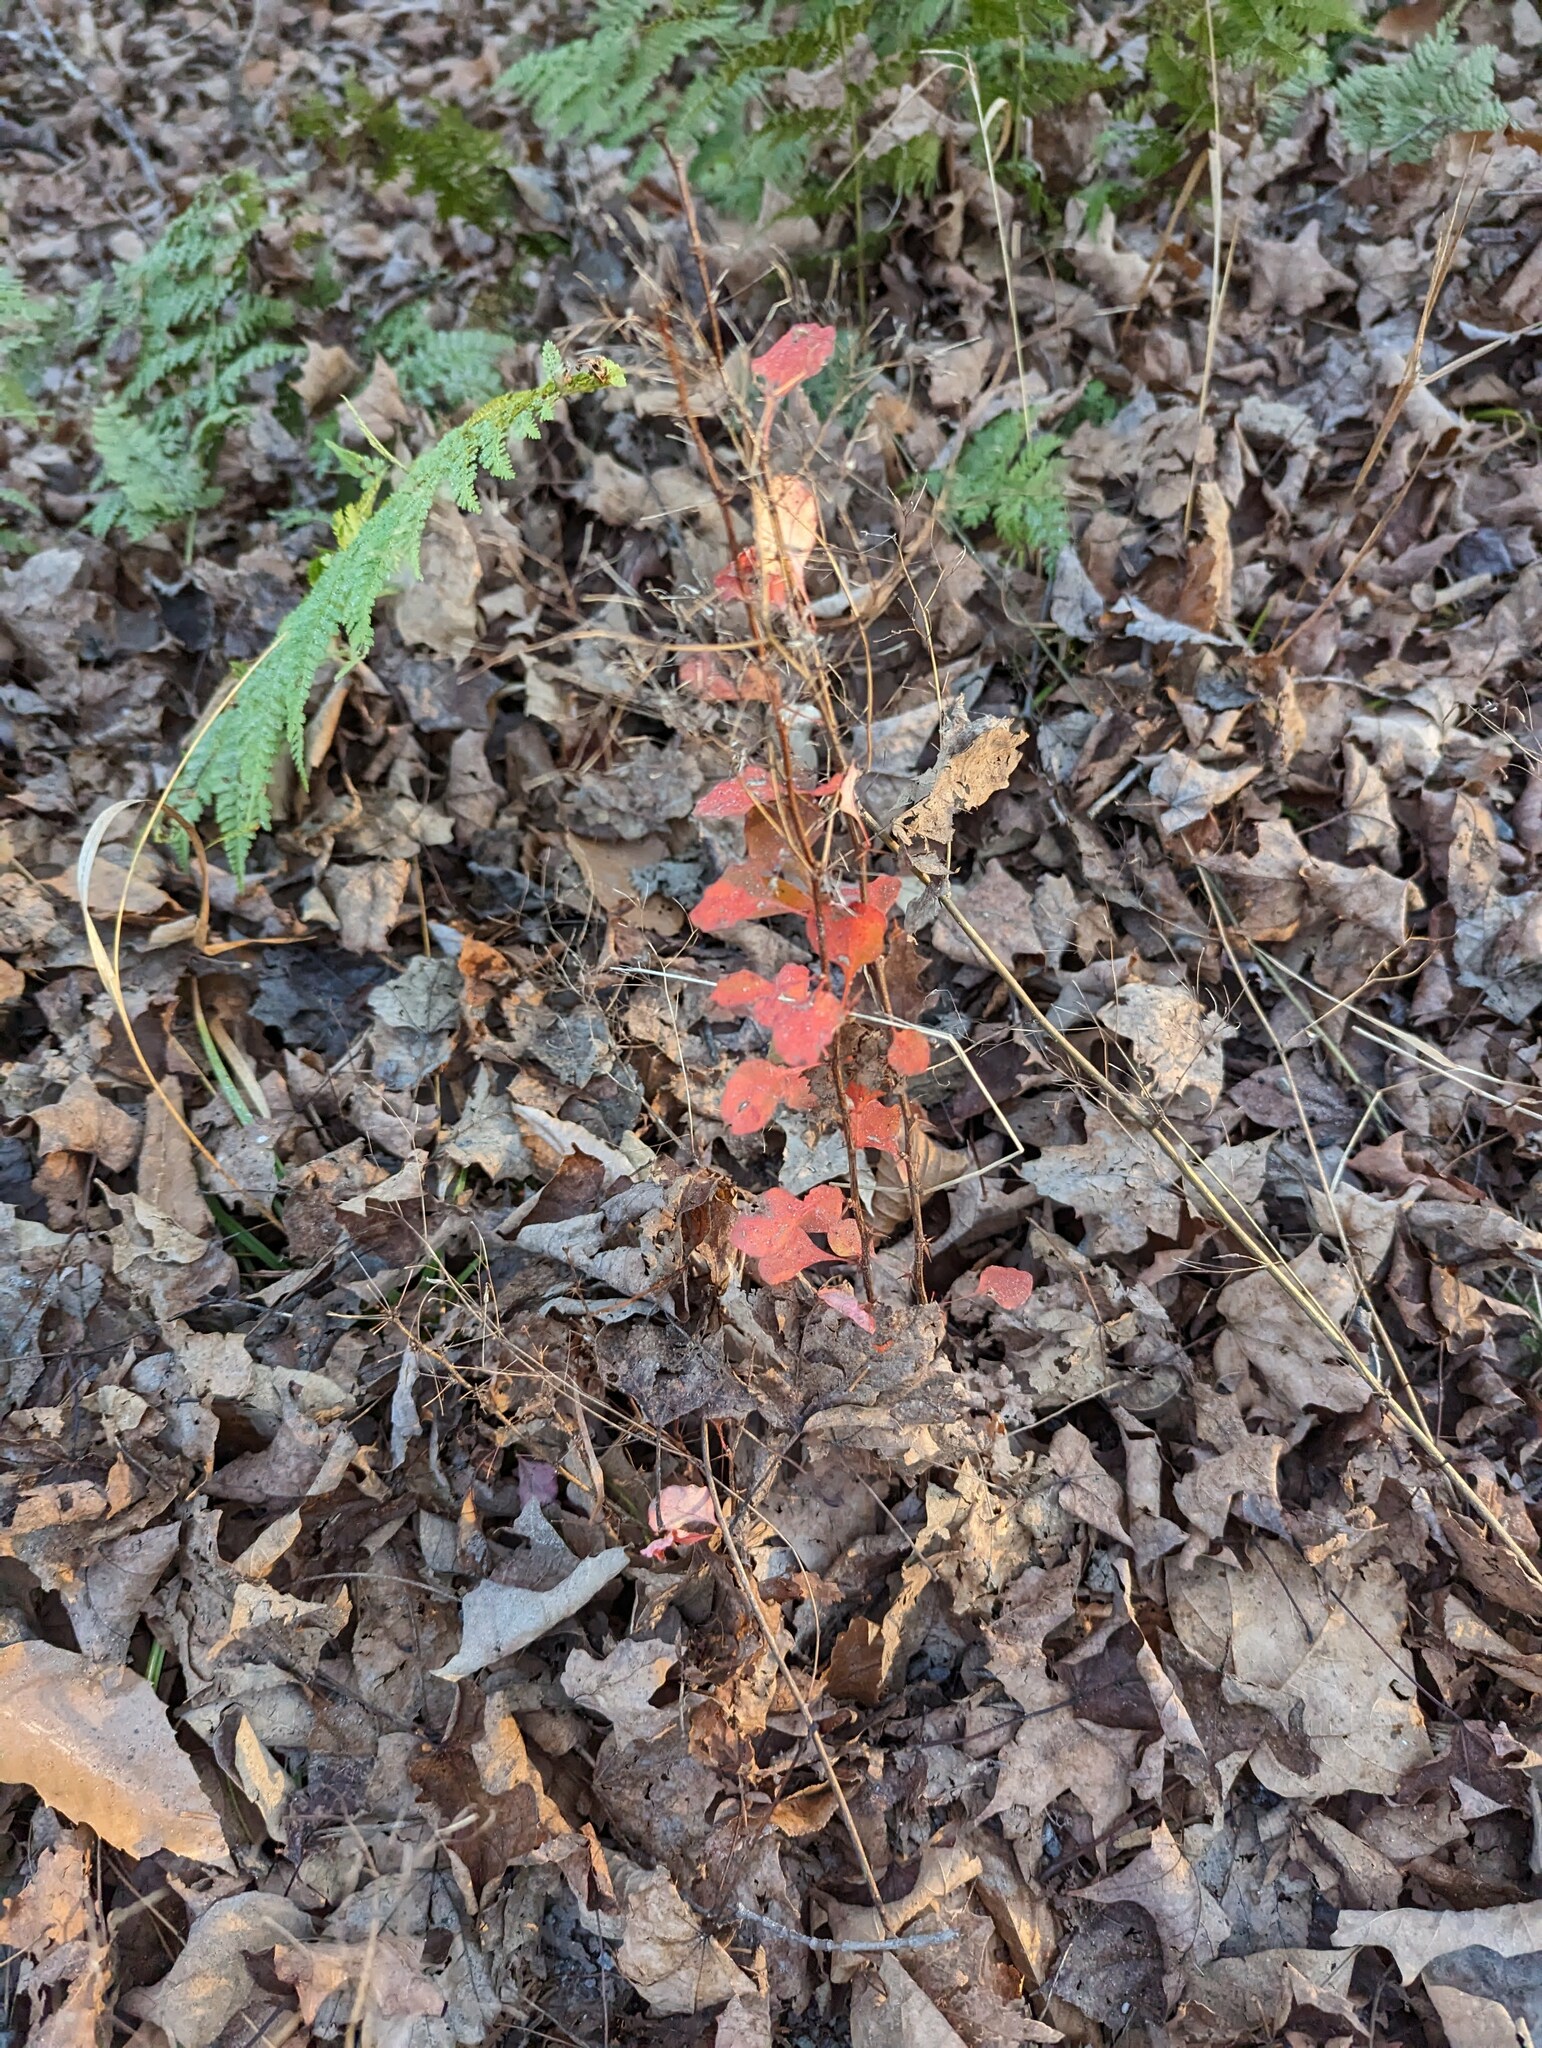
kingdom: Plantae
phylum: Tracheophyta
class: Magnoliopsida
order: Ranunculales
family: Berberidaceae
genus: Berberis
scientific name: Berberis thunbergii
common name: Japanese barberry
